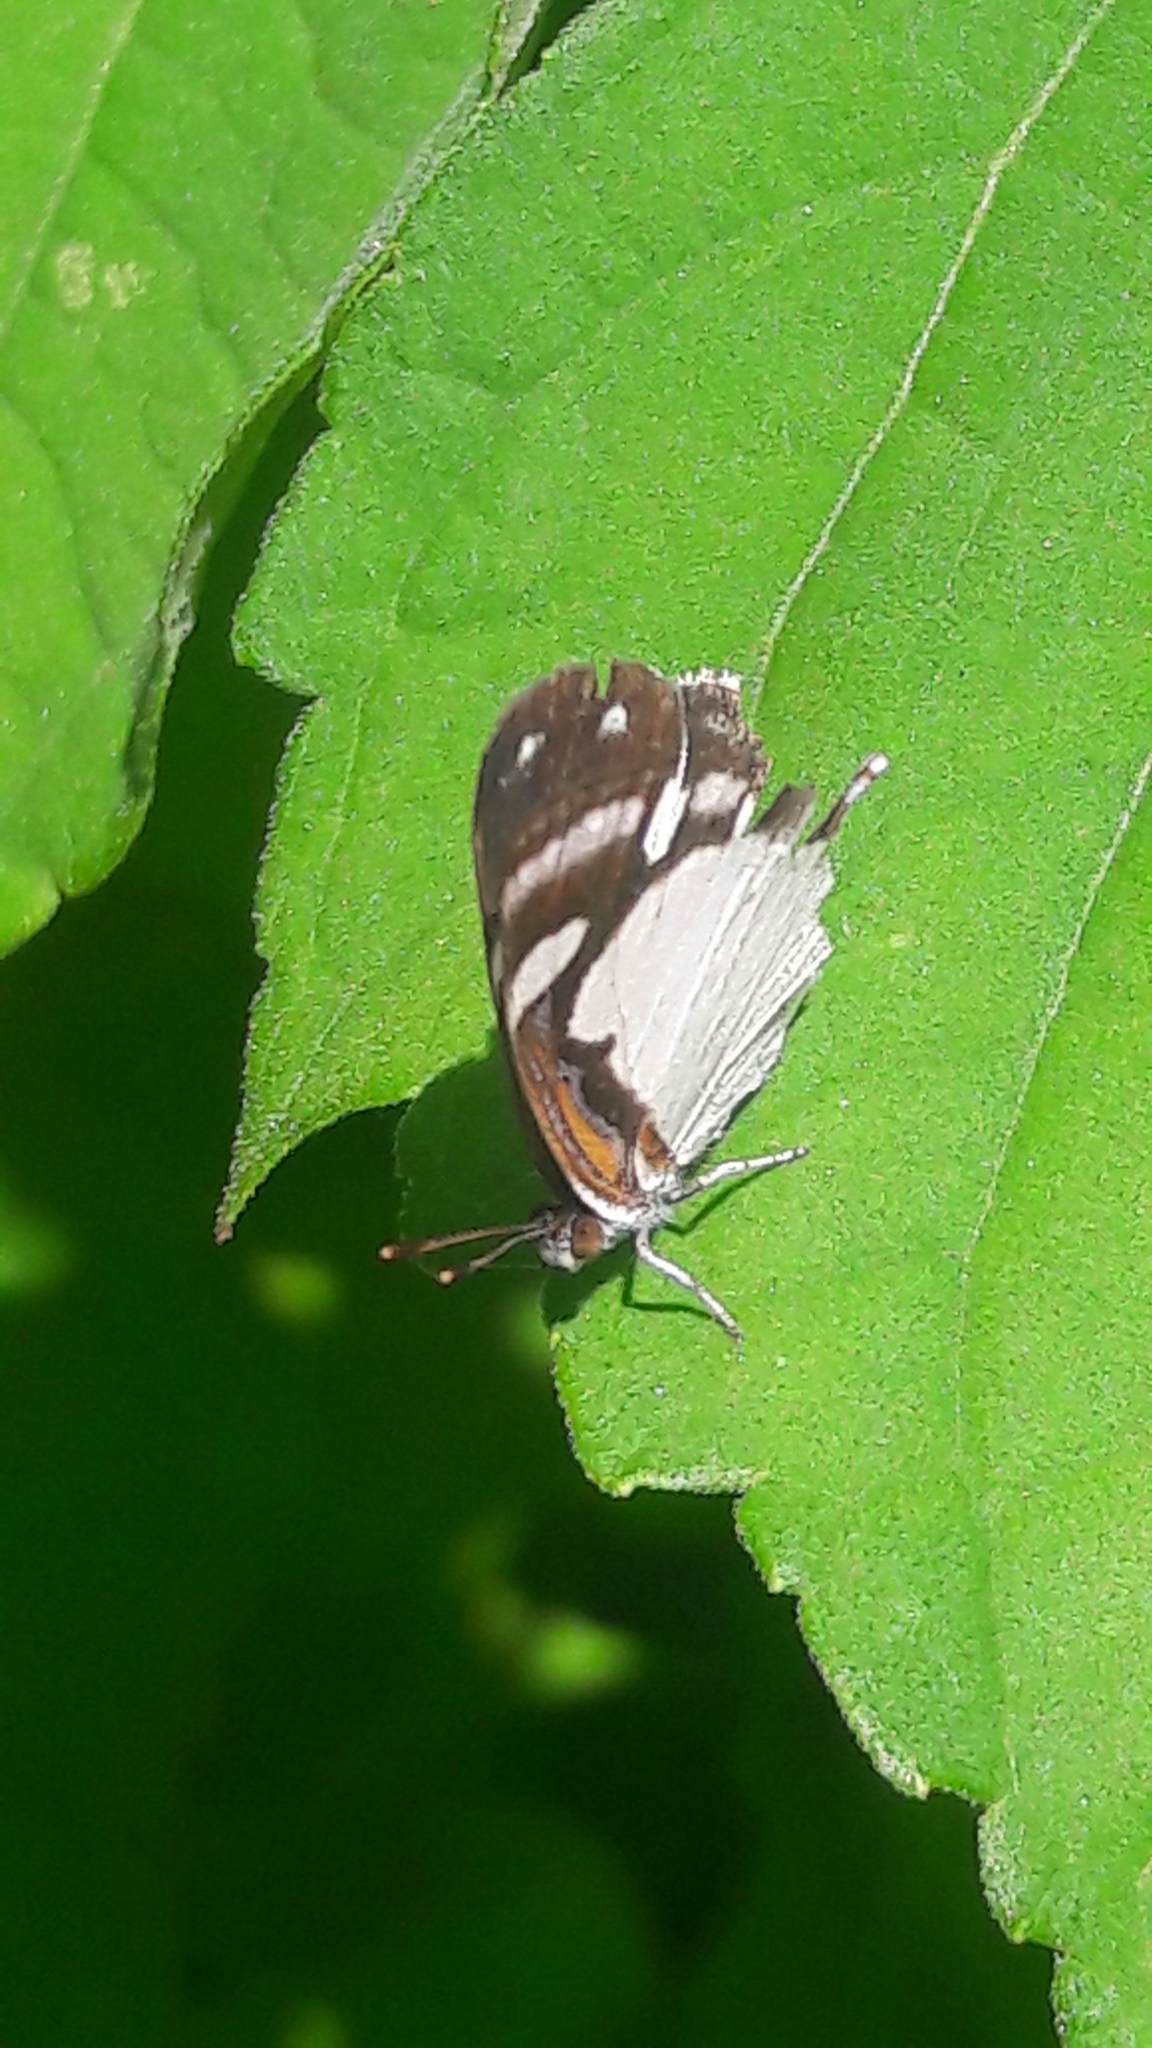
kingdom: Animalia
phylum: Arthropoda
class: Insecta
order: Lepidoptera
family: Nymphalidae
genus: Dynamine
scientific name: Dynamine agacles
